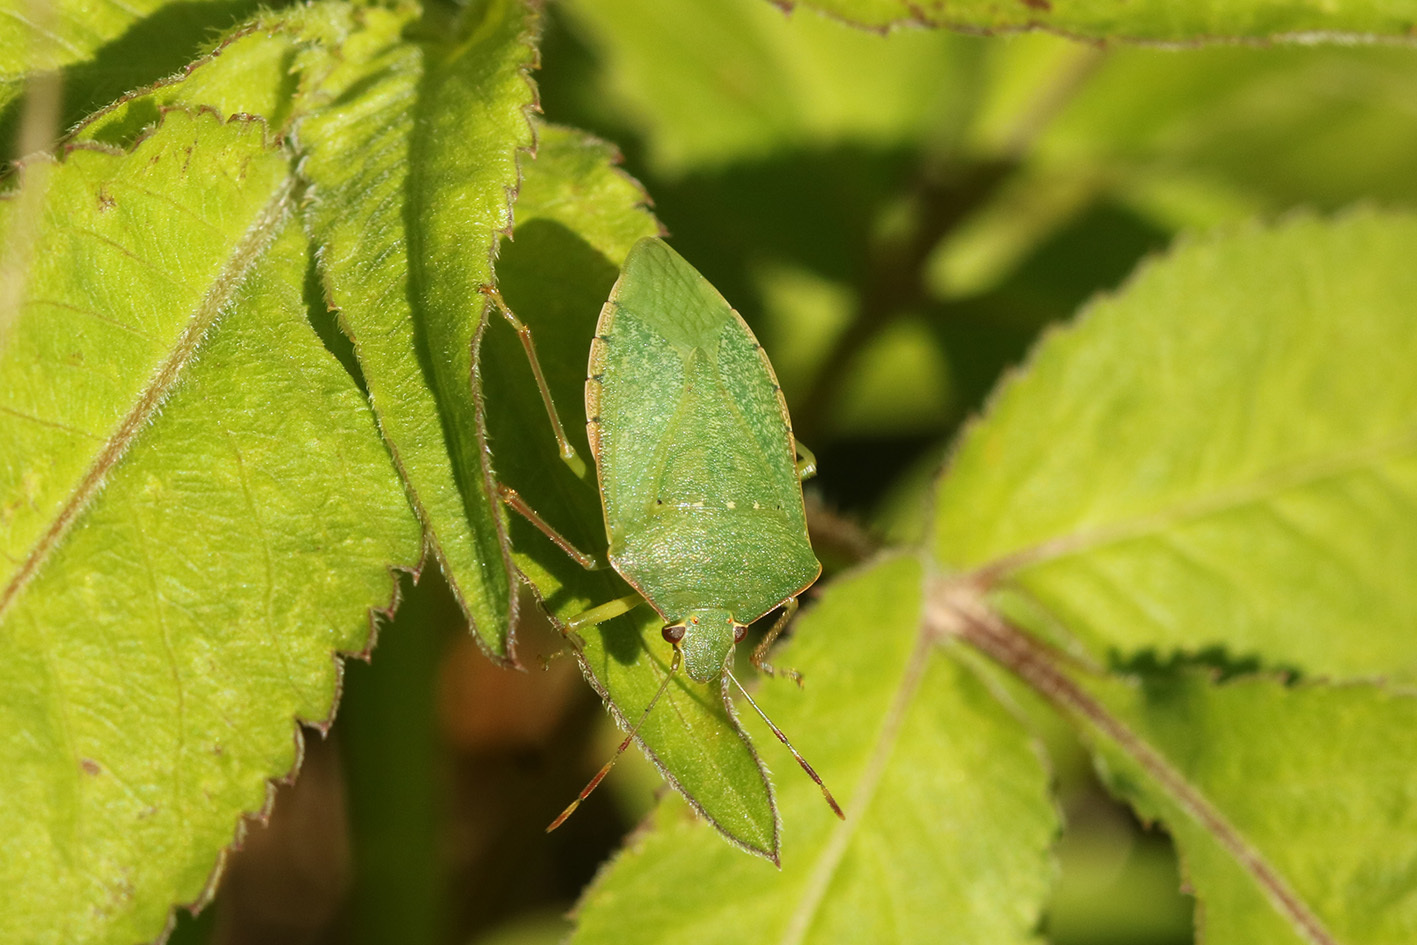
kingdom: Animalia
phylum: Arthropoda
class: Insecta
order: Hemiptera
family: Pentatomidae
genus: Nezara
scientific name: Nezara viridula
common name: Southern green stink bug
